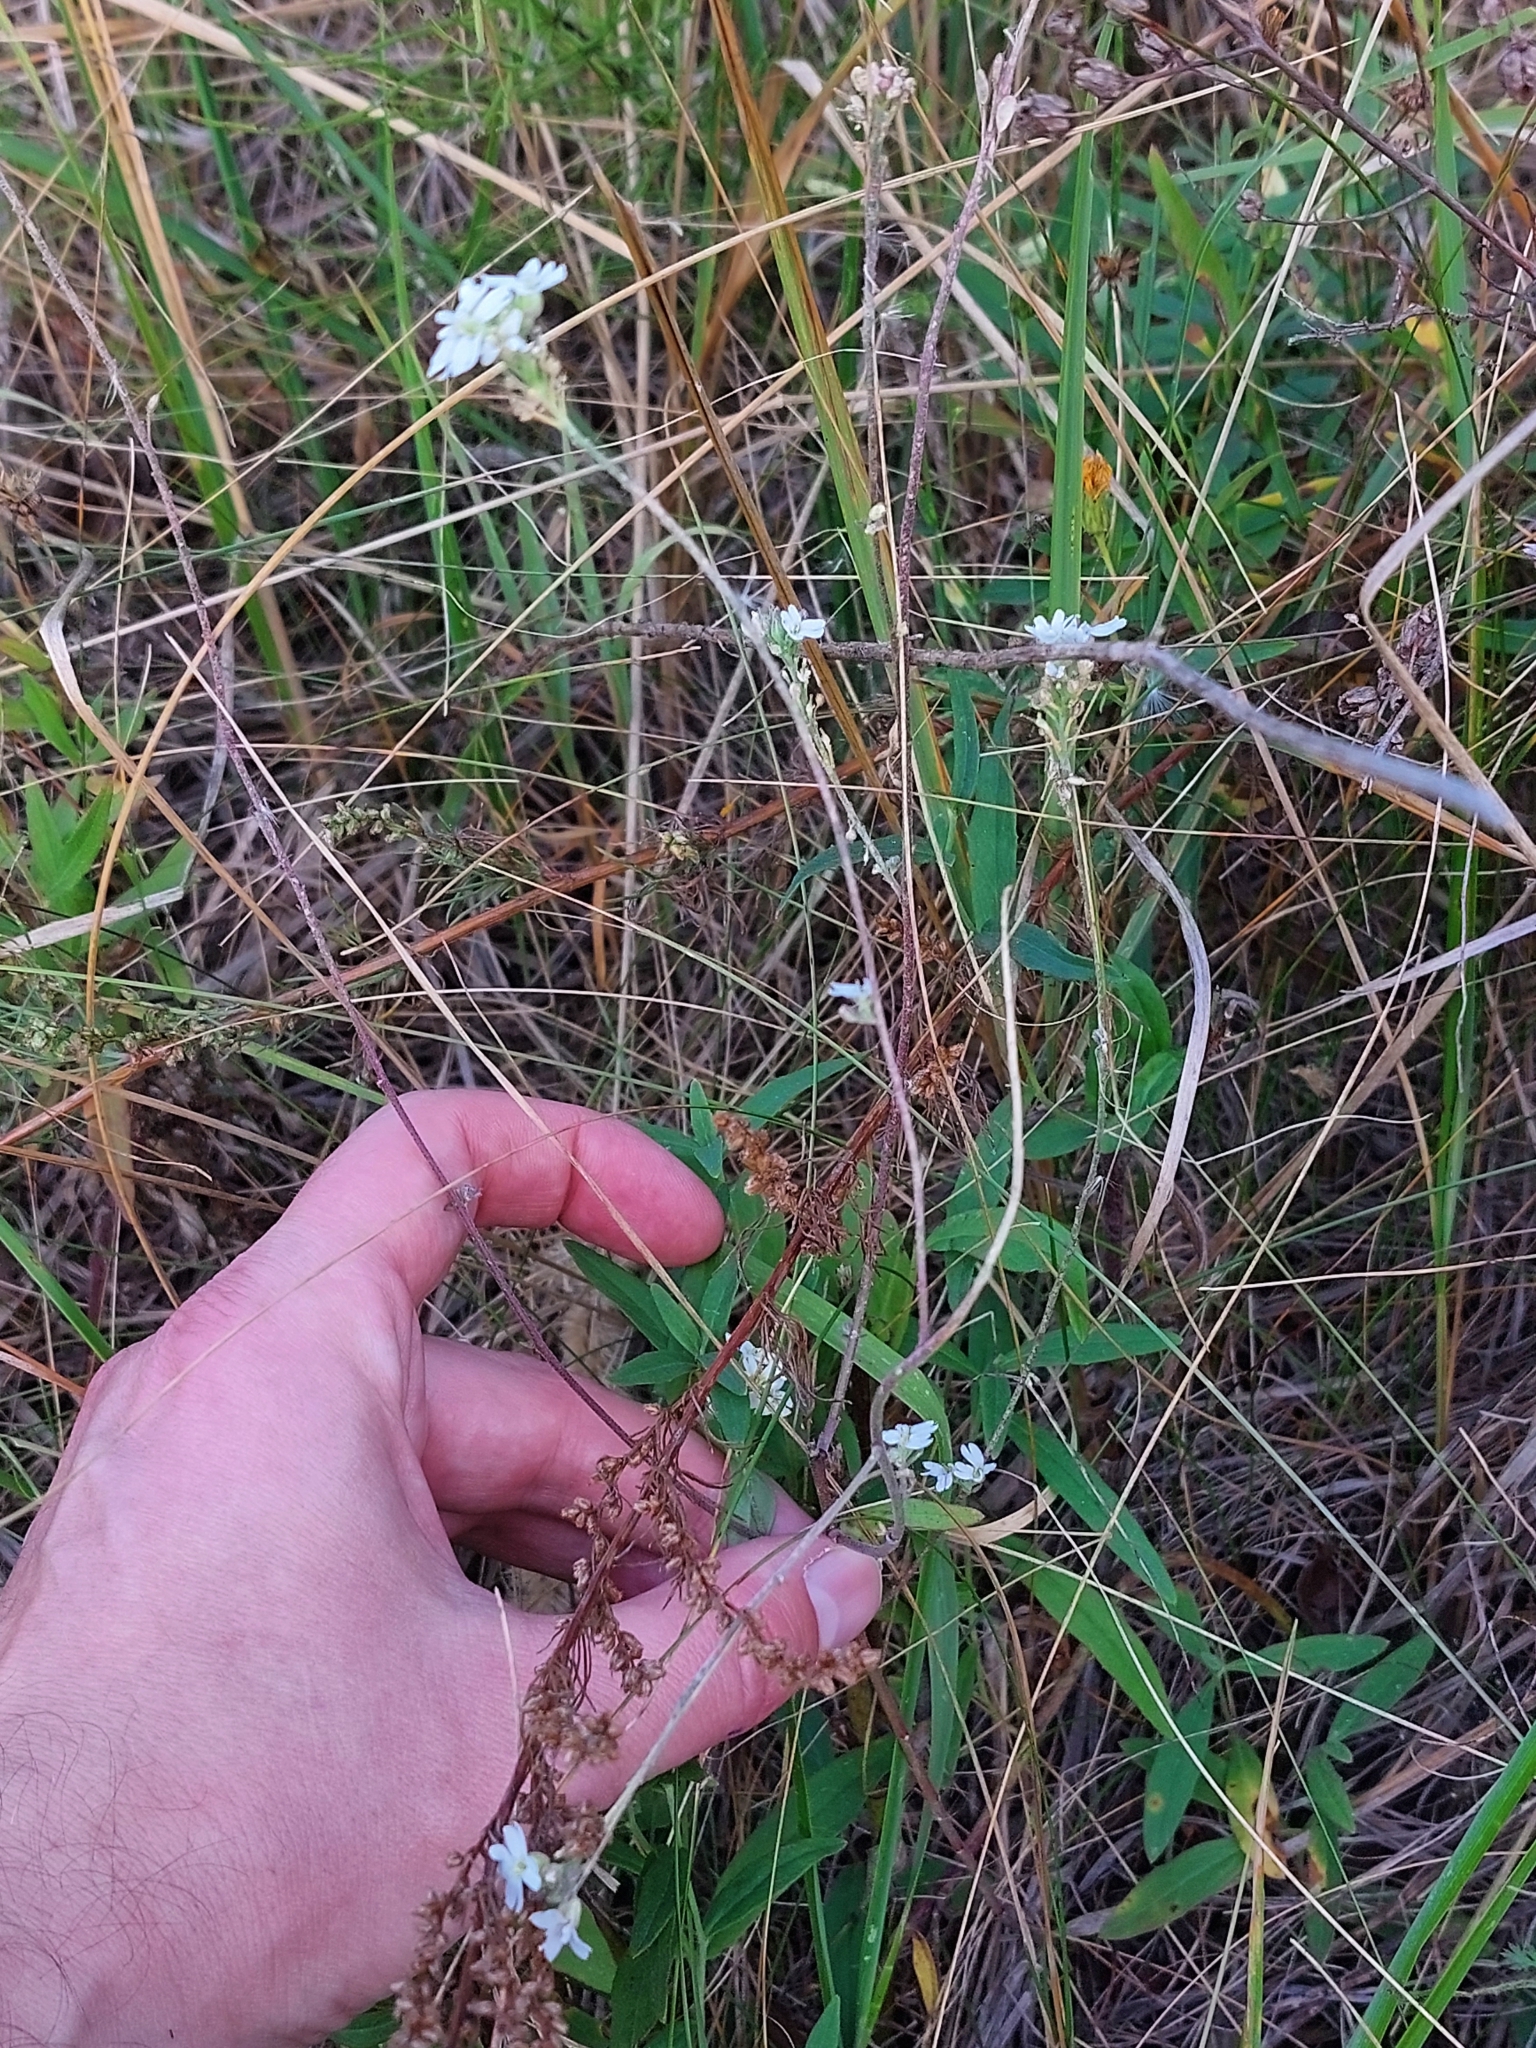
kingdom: Plantae
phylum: Tracheophyta
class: Magnoliopsida
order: Brassicales
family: Brassicaceae
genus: Berteroa
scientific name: Berteroa incana
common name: Hoary alison
